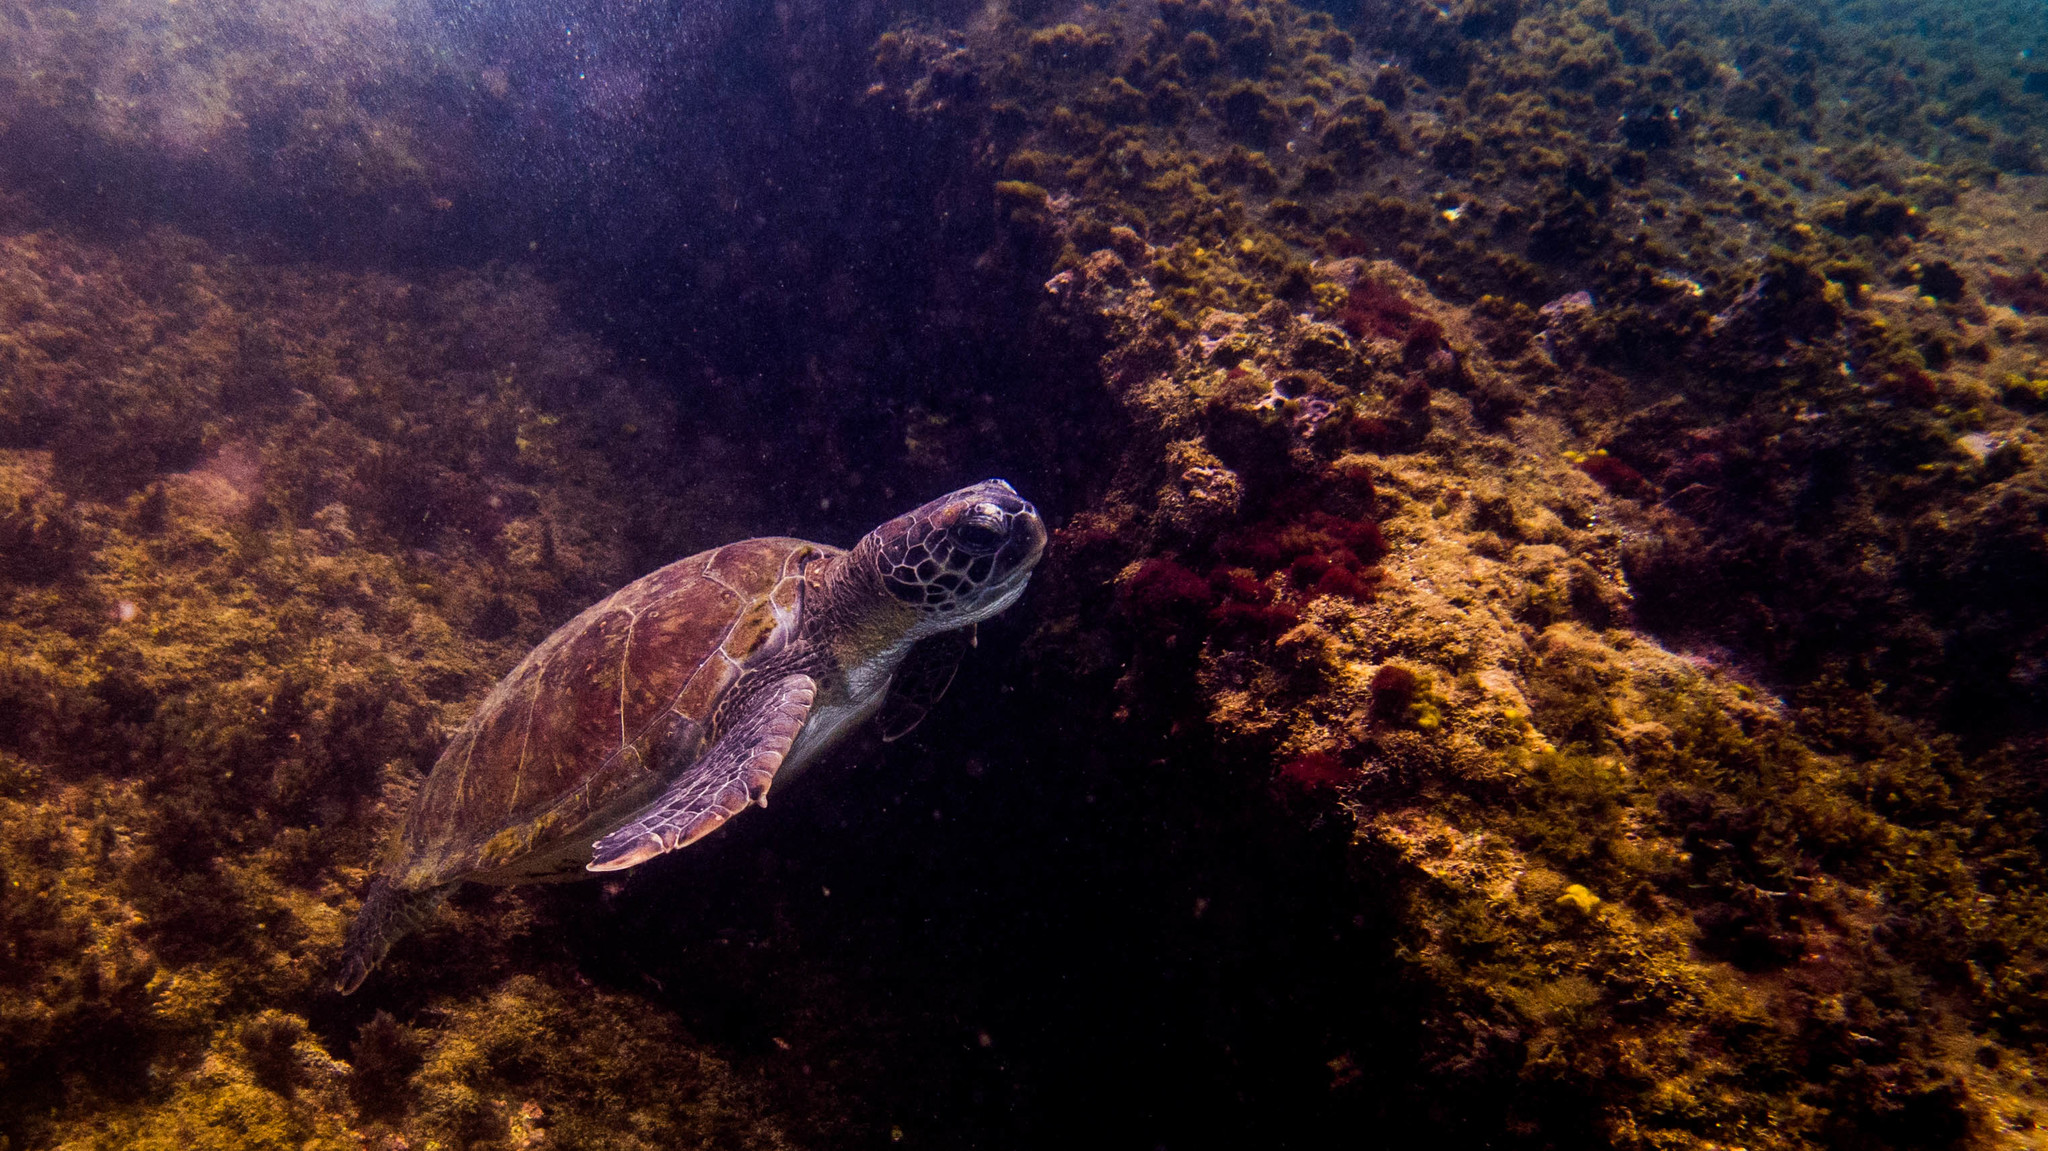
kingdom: Animalia
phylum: Chordata
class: Testudines
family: Cheloniidae
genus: Chelonia
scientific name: Chelonia mydas
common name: Green turtle
